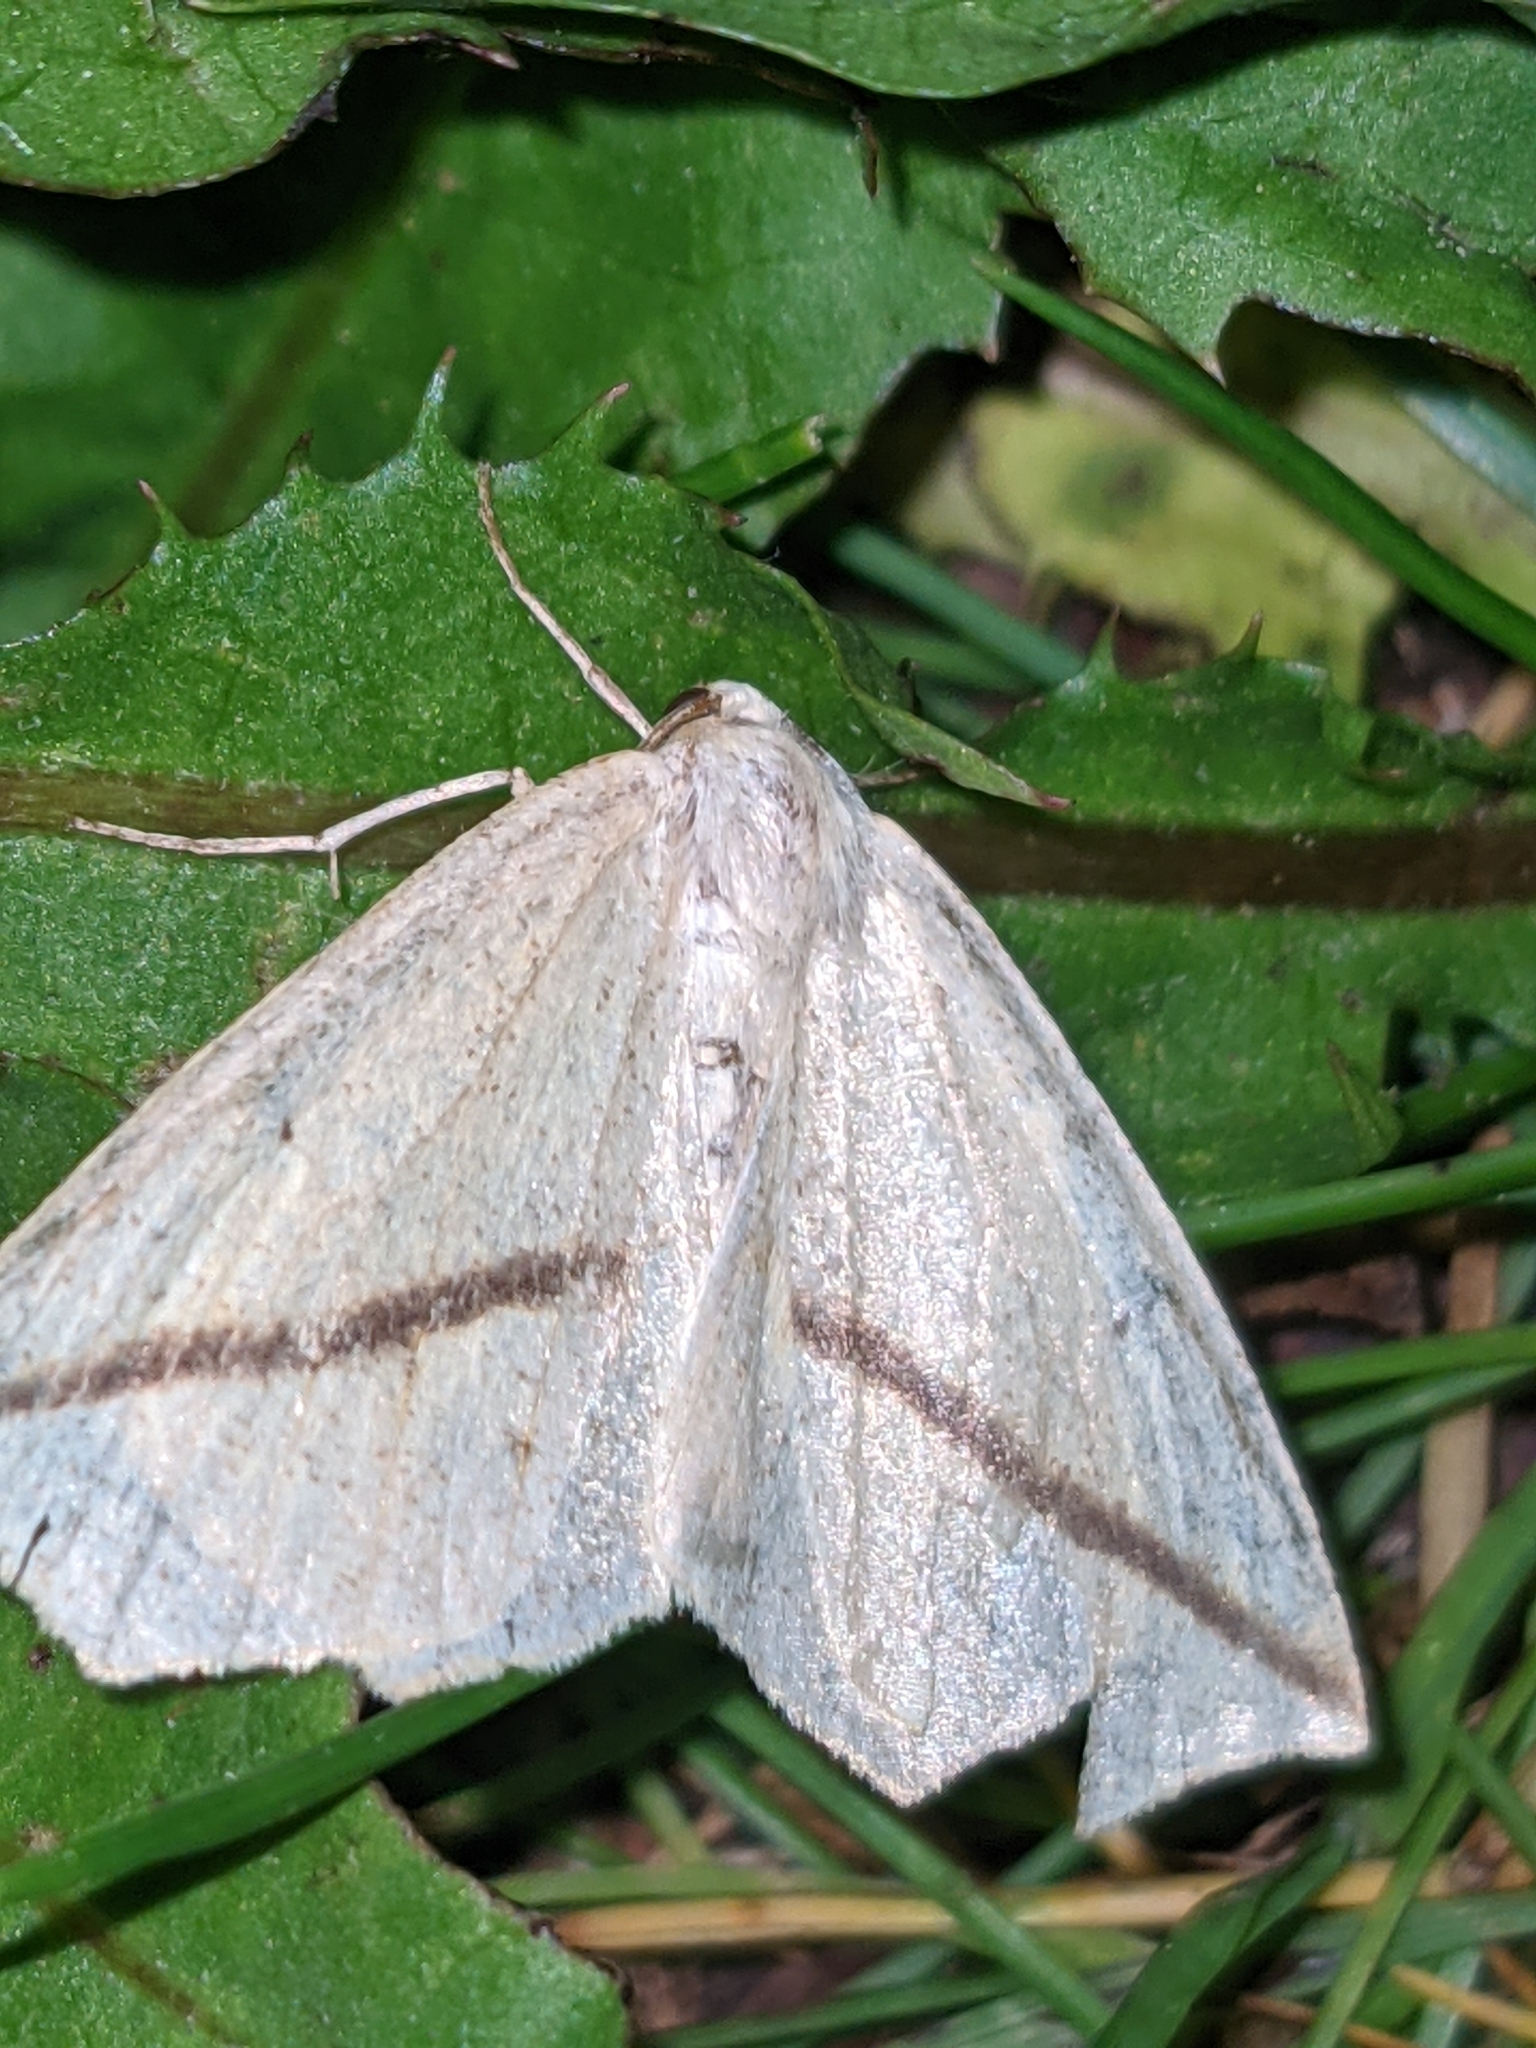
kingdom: Animalia
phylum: Arthropoda
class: Insecta
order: Lepidoptera
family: Geometridae
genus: Tetracis
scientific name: Tetracis crocallata
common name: Yellow slant-line
